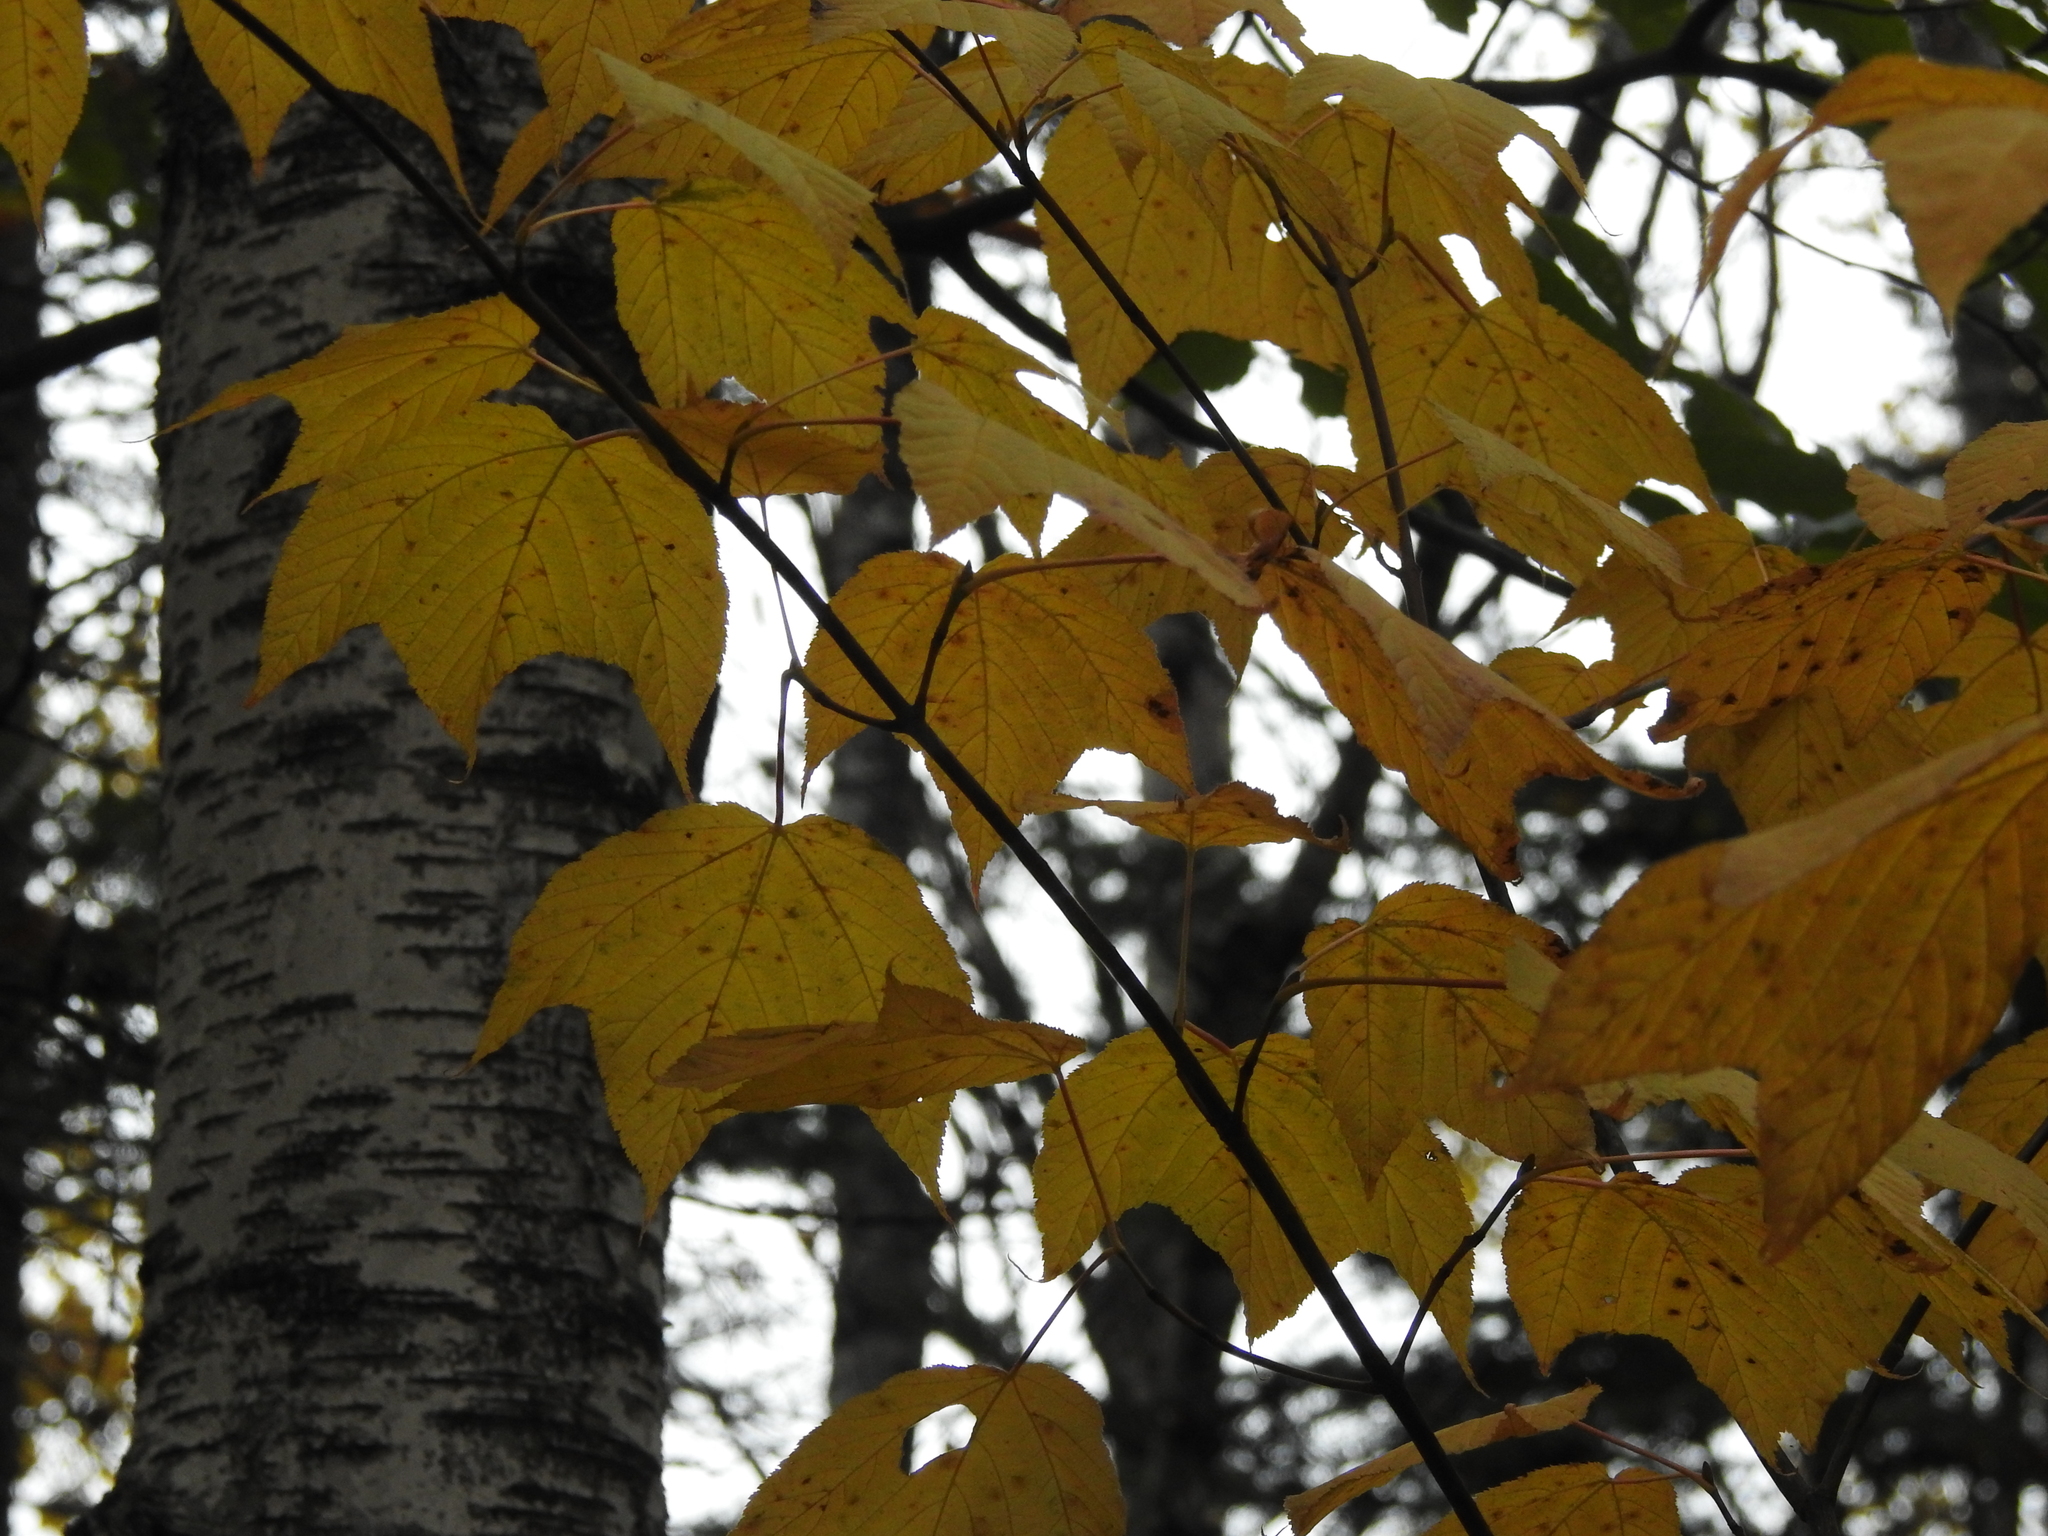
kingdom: Plantae
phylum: Tracheophyta
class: Magnoliopsida
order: Sapindales
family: Sapindaceae
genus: Acer
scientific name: Acer pensylvanicum
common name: Moosewood
